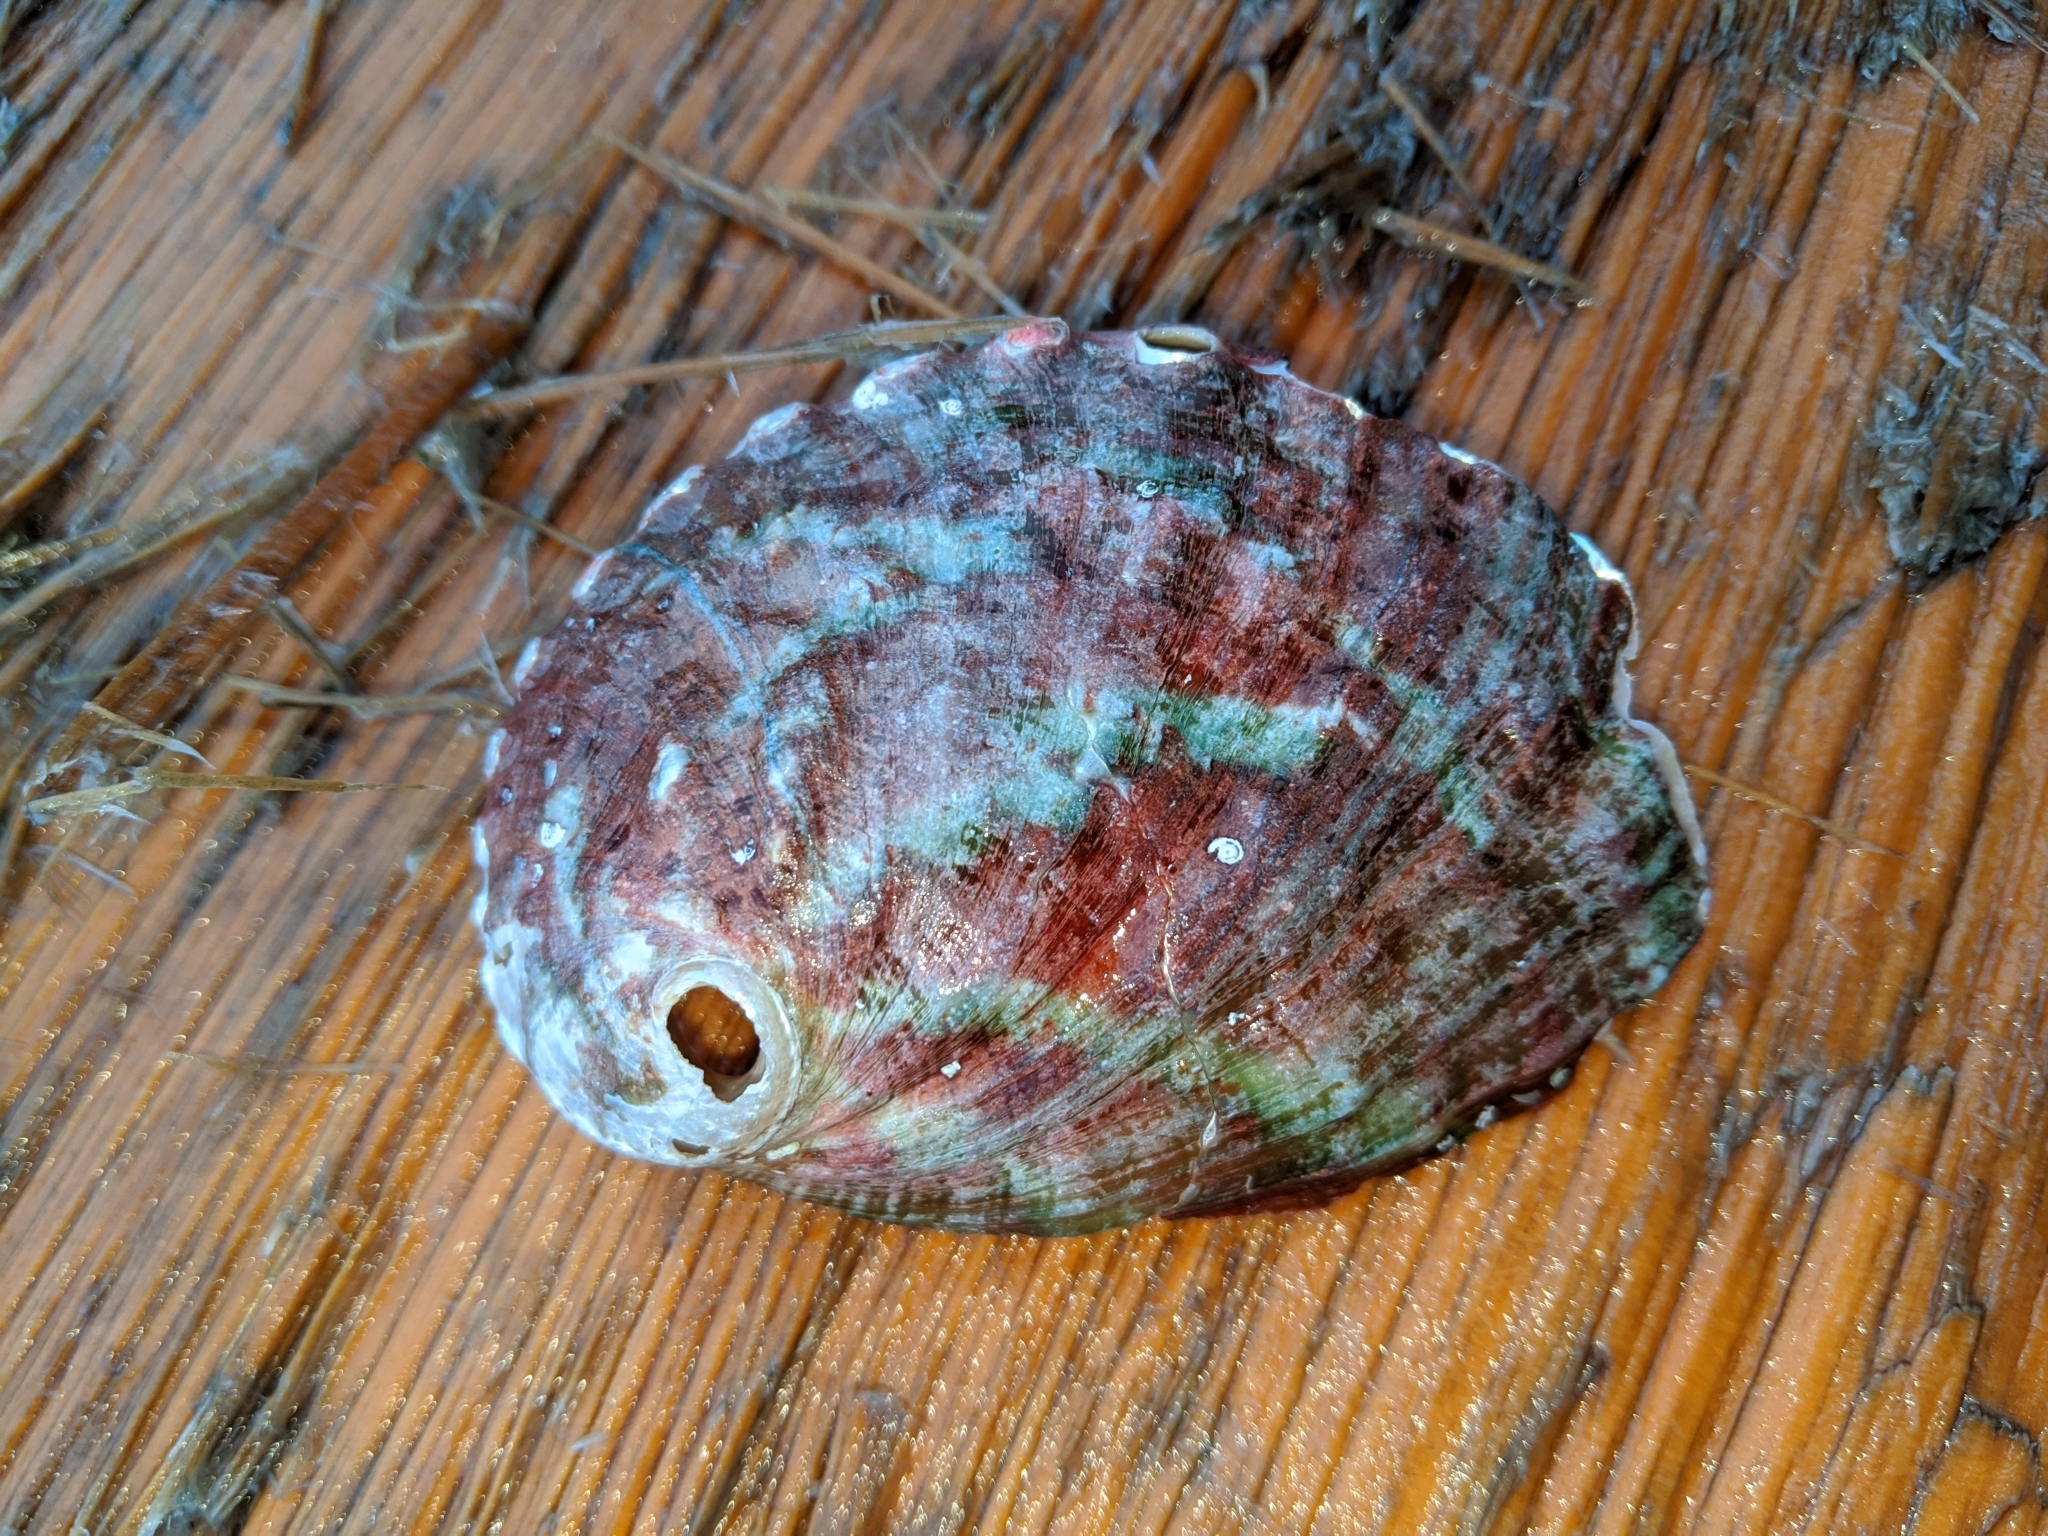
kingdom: Animalia
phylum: Mollusca
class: Gastropoda
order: Lepetellida
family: Haliotidae
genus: Haliotis
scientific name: Haliotis kamtschatkana
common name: Pinto abalone
